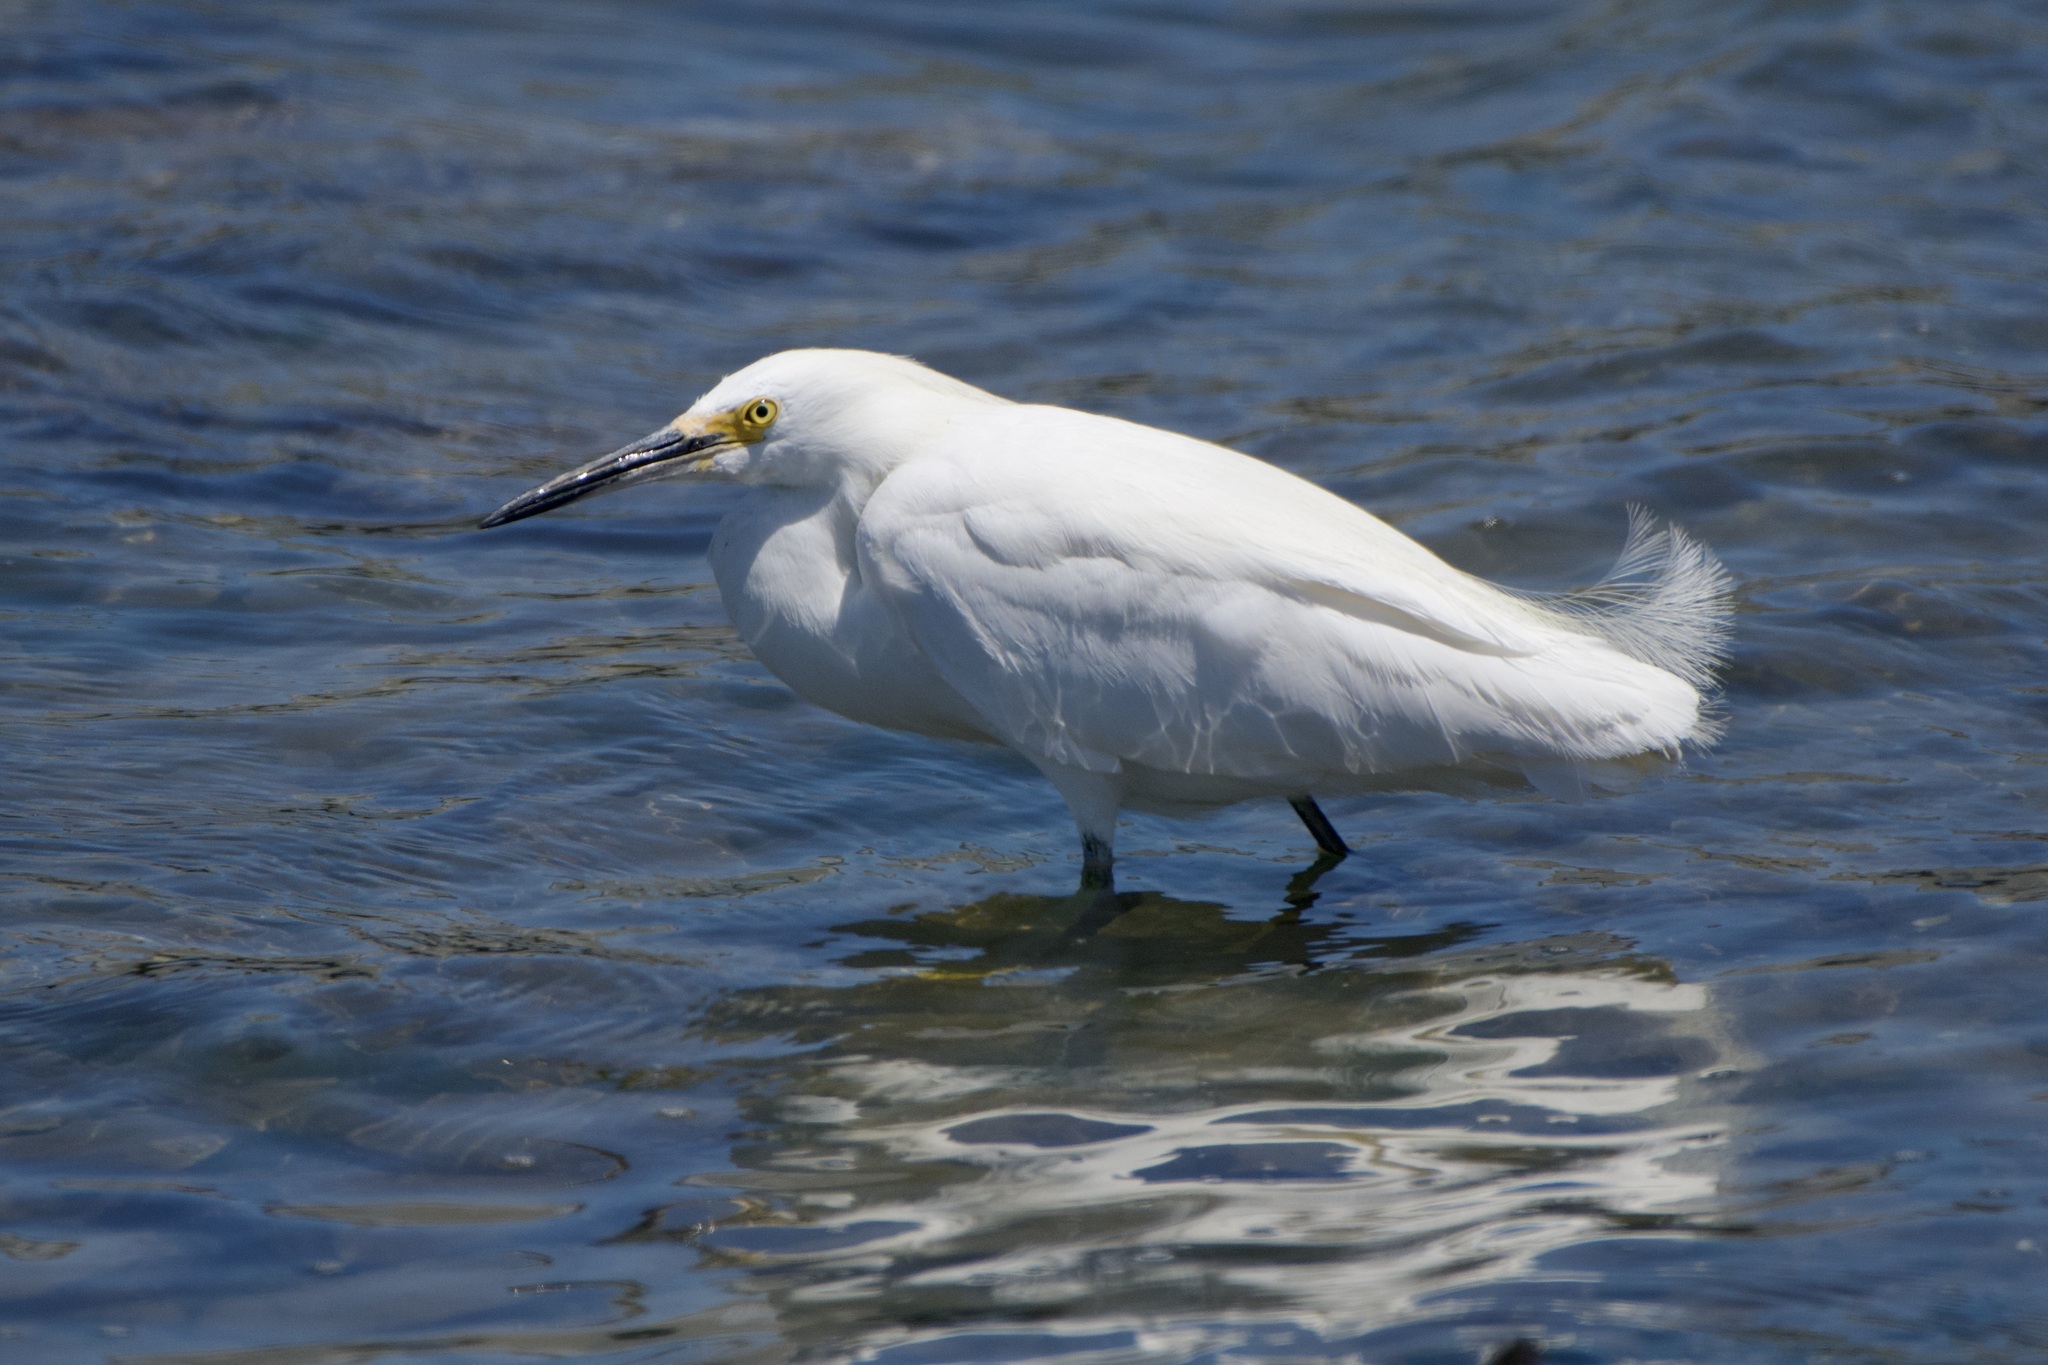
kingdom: Animalia
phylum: Chordata
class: Aves
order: Pelecaniformes
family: Ardeidae
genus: Egretta
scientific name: Egretta thula
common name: Snowy egret
